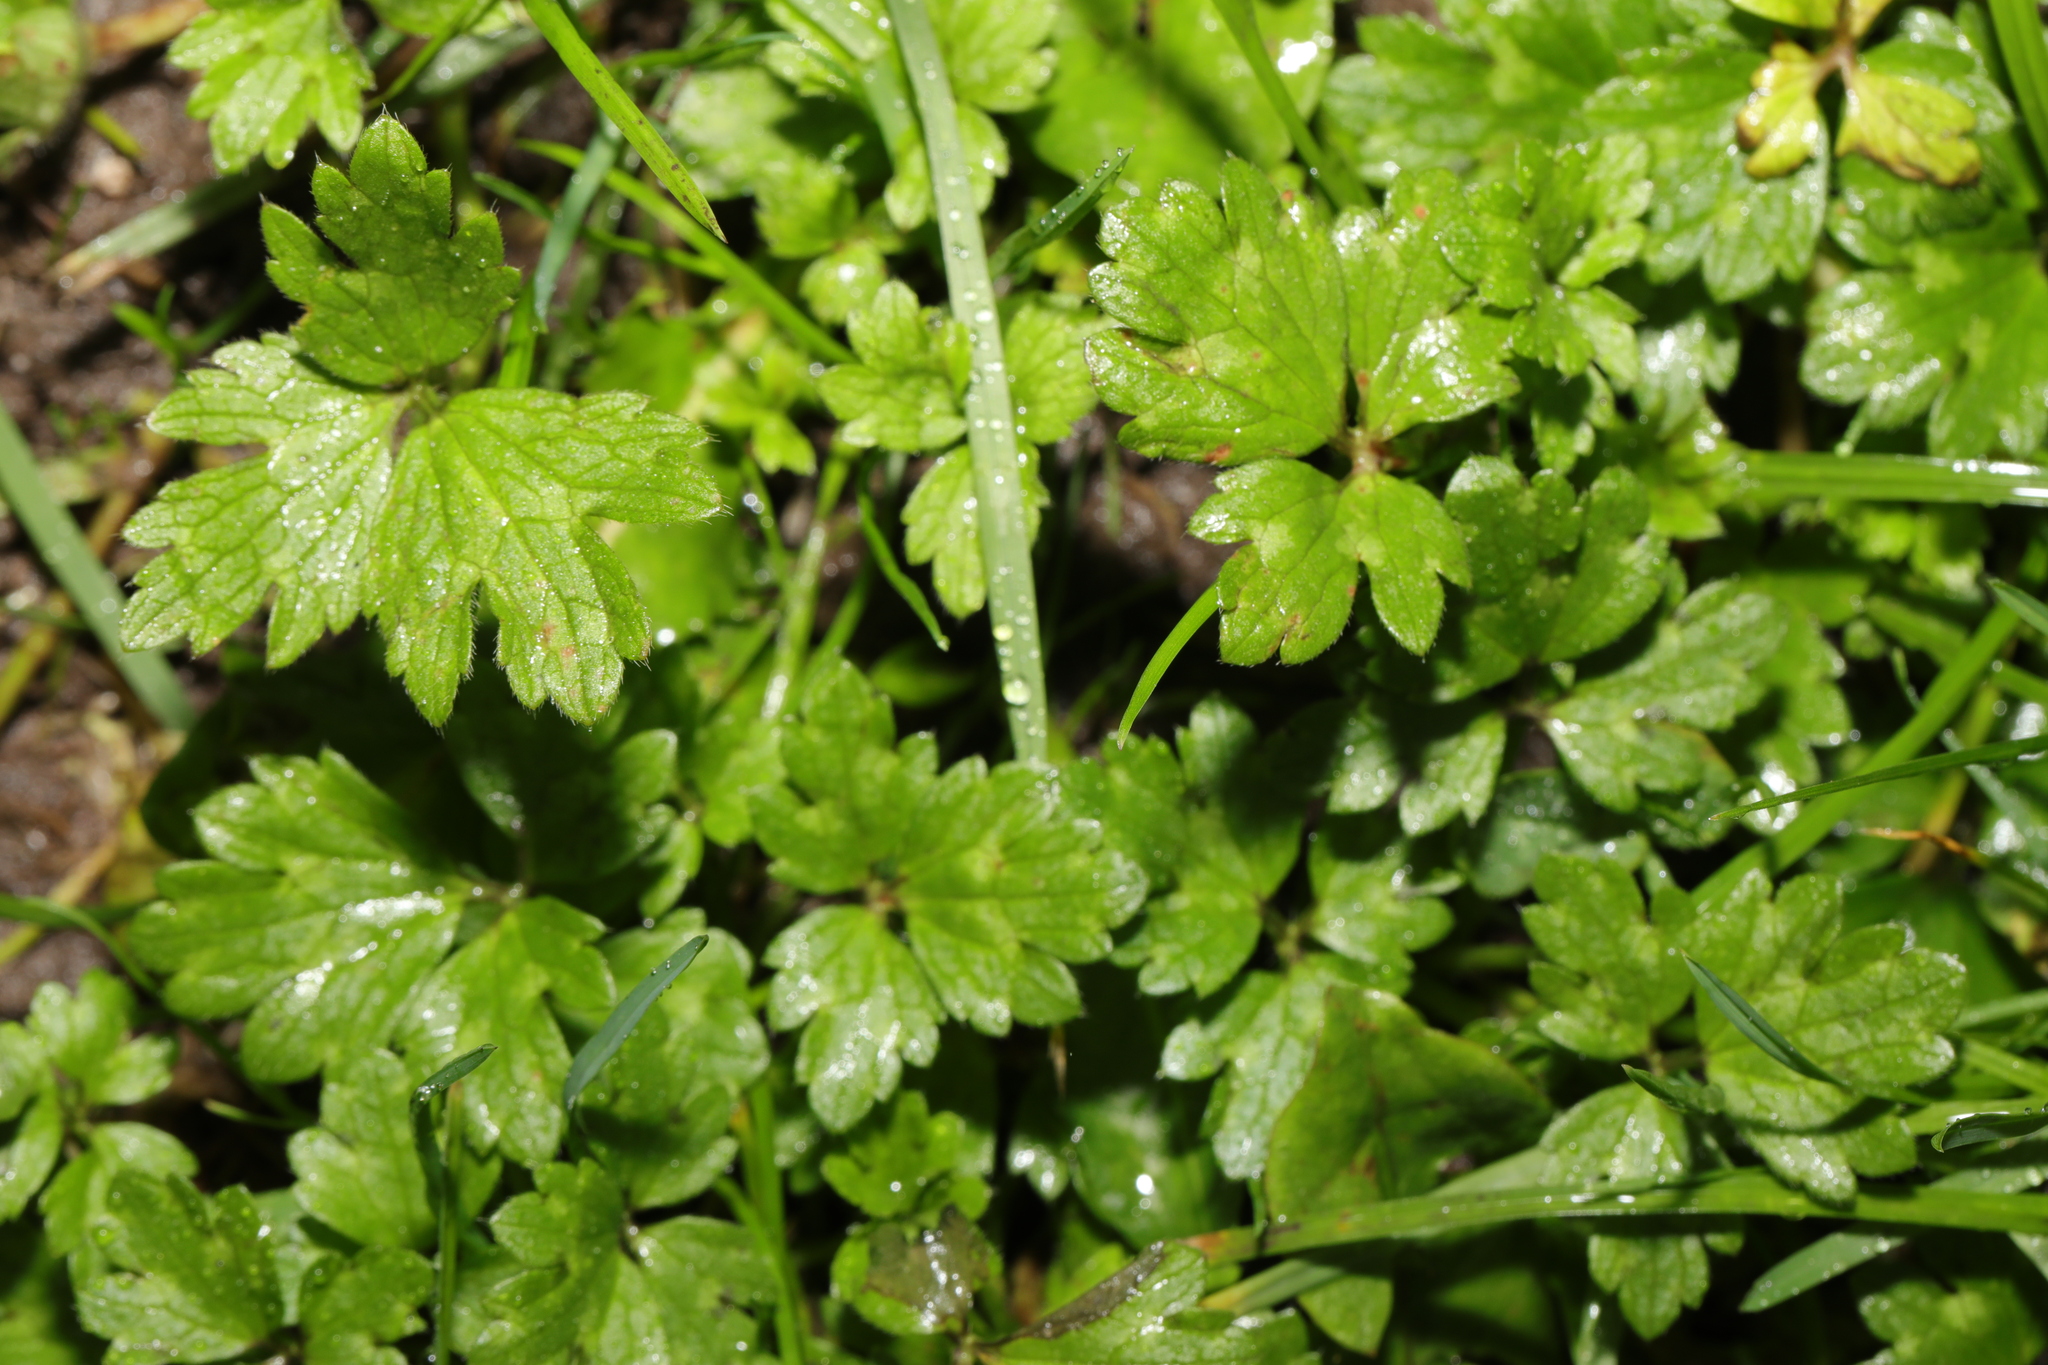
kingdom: Plantae
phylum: Tracheophyta
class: Magnoliopsida
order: Ranunculales
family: Ranunculaceae
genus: Ranunculus
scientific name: Ranunculus repens
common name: Creeping buttercup
